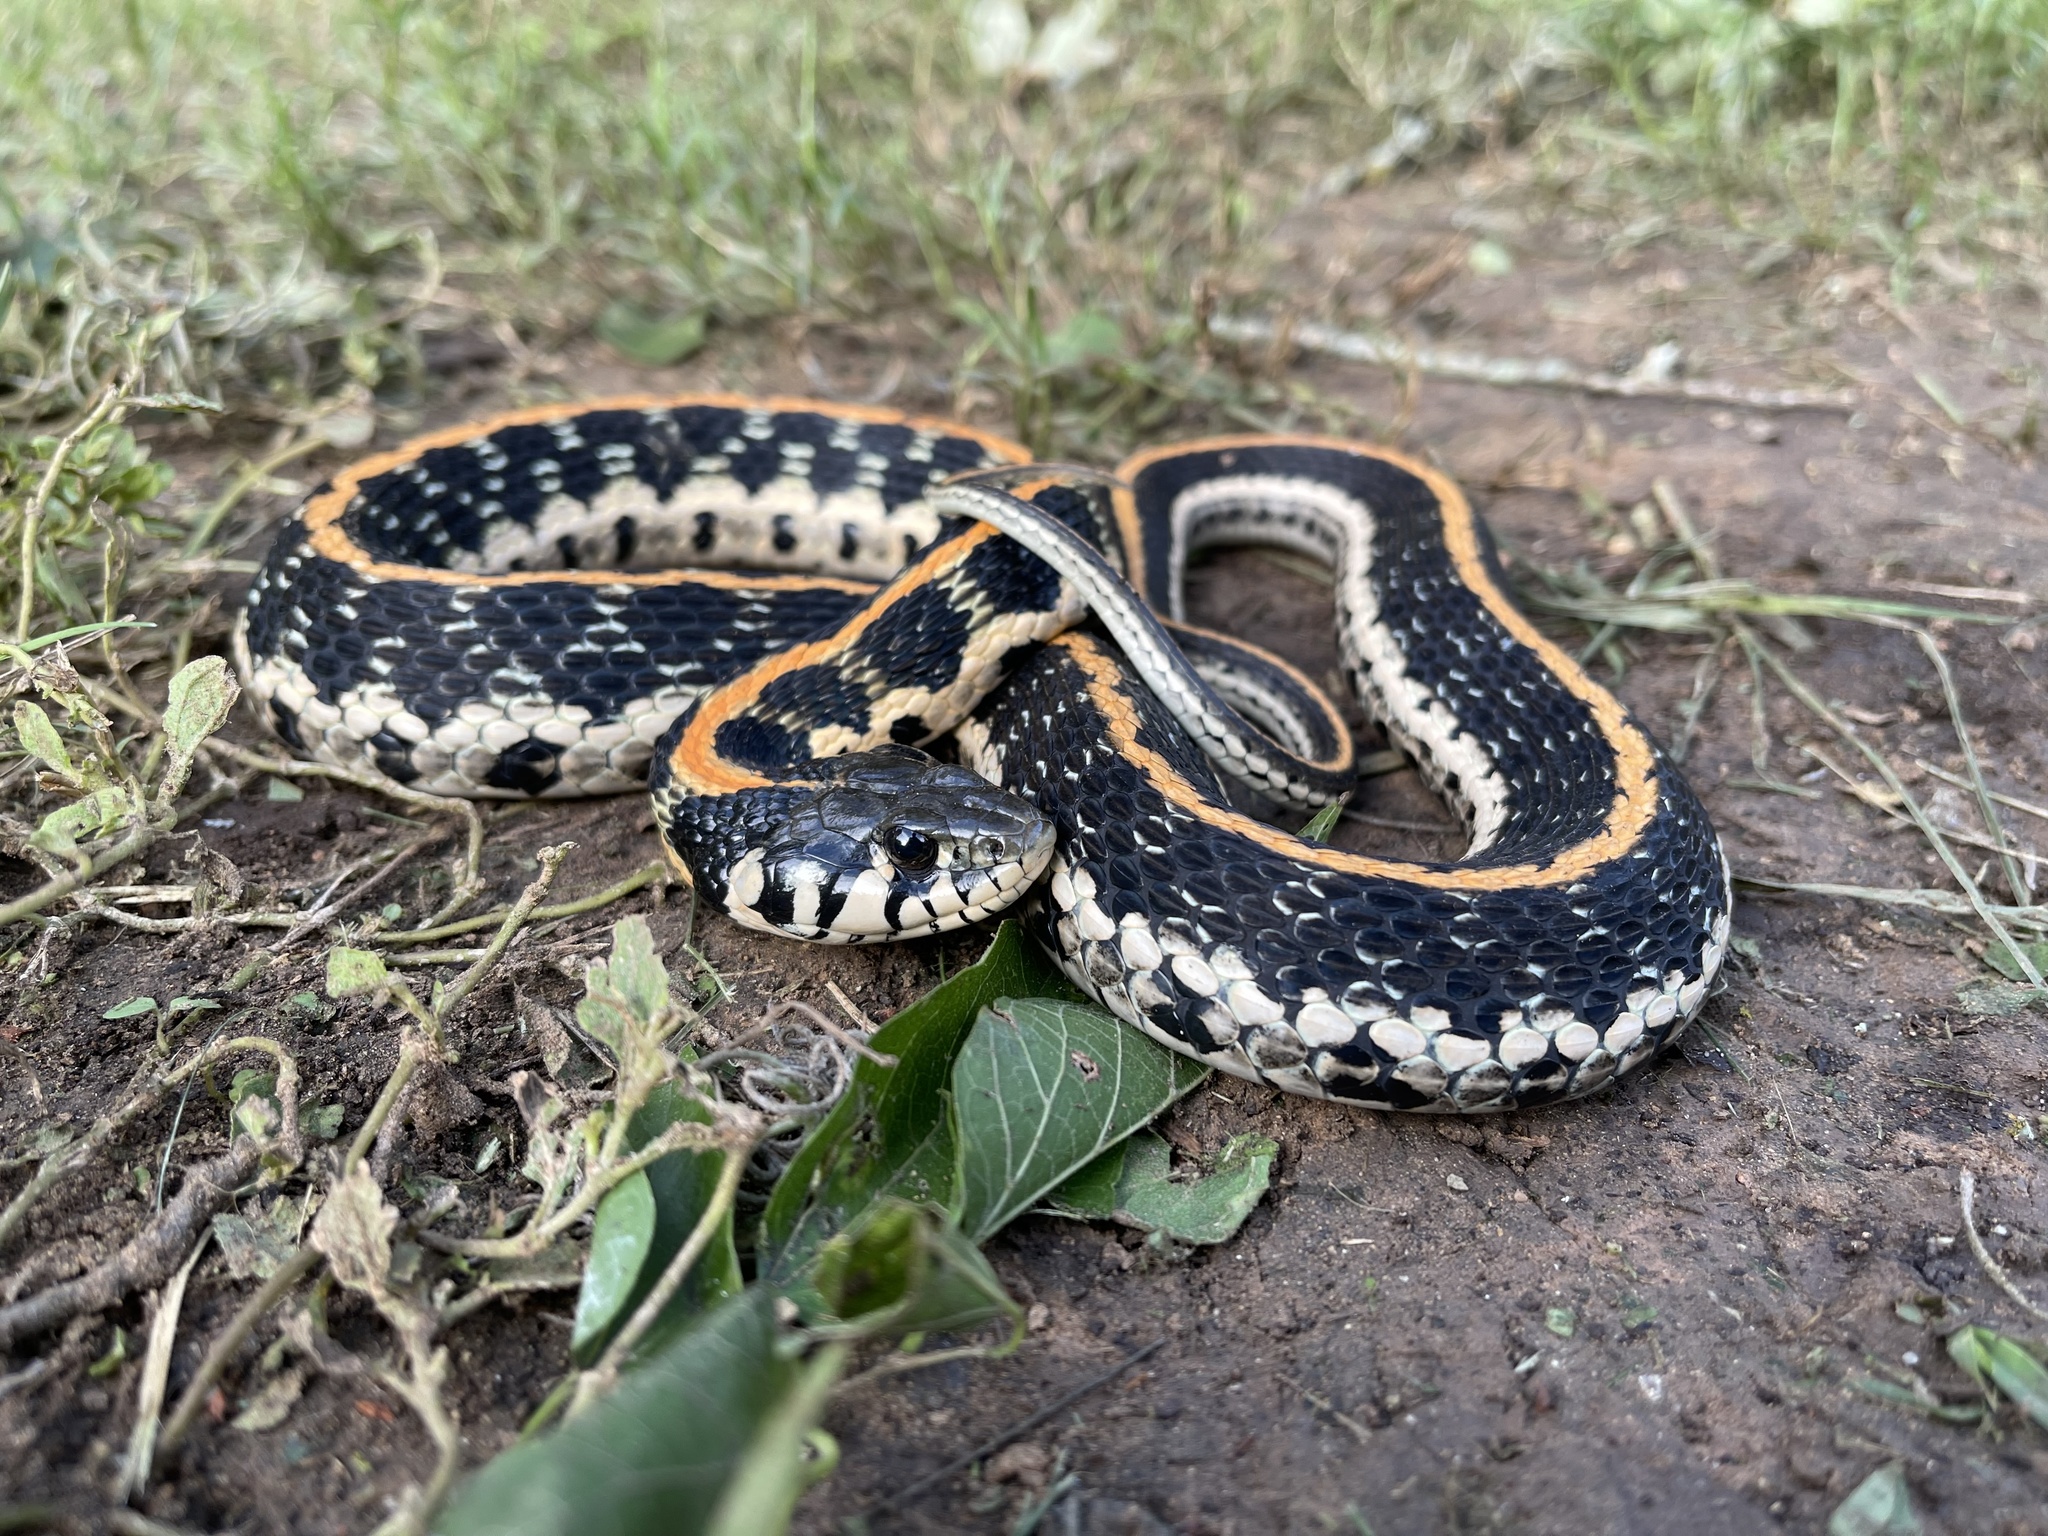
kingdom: Animalia
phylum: Chordata
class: Squamata
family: Colubridae
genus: Thamnophis
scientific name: Thamnophis cyrtopsis
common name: Black-necked gartersnake
